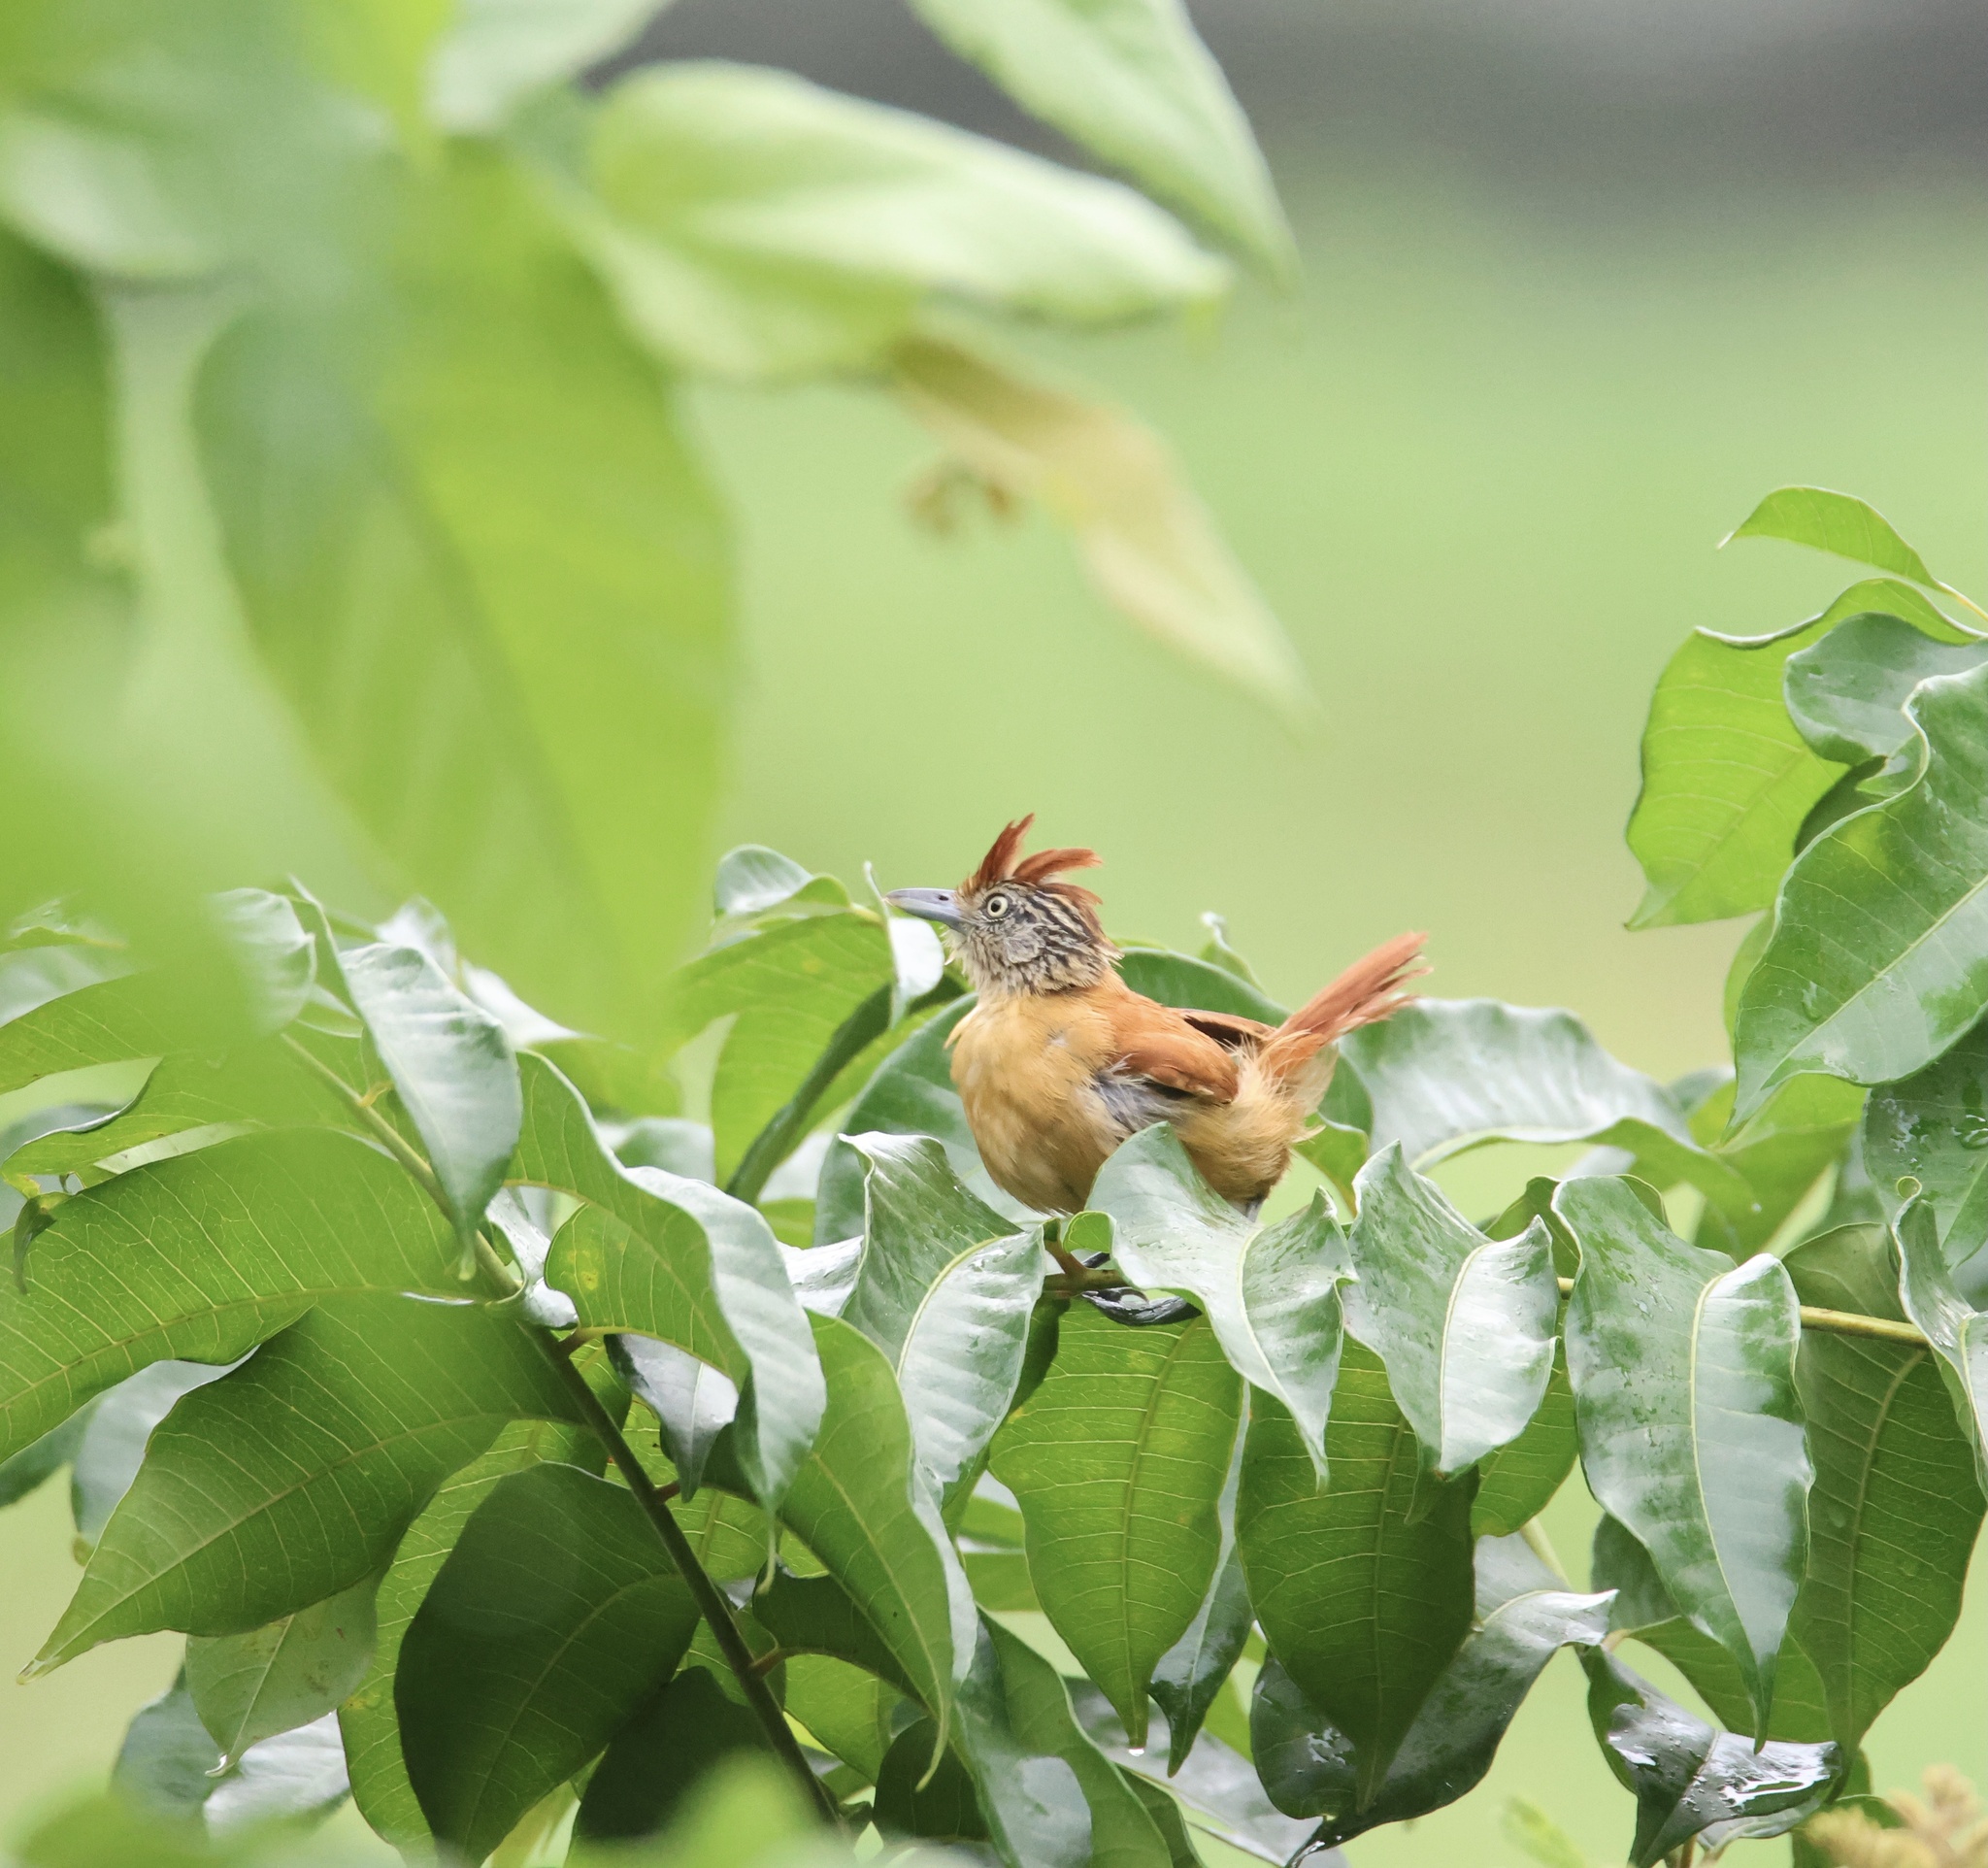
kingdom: Animalia
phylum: Chordata
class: Aves
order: Passeriformes
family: Thamnophilidae
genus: Thamnophilus
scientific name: Thamnophilus doliatus
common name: Barred antshrike
